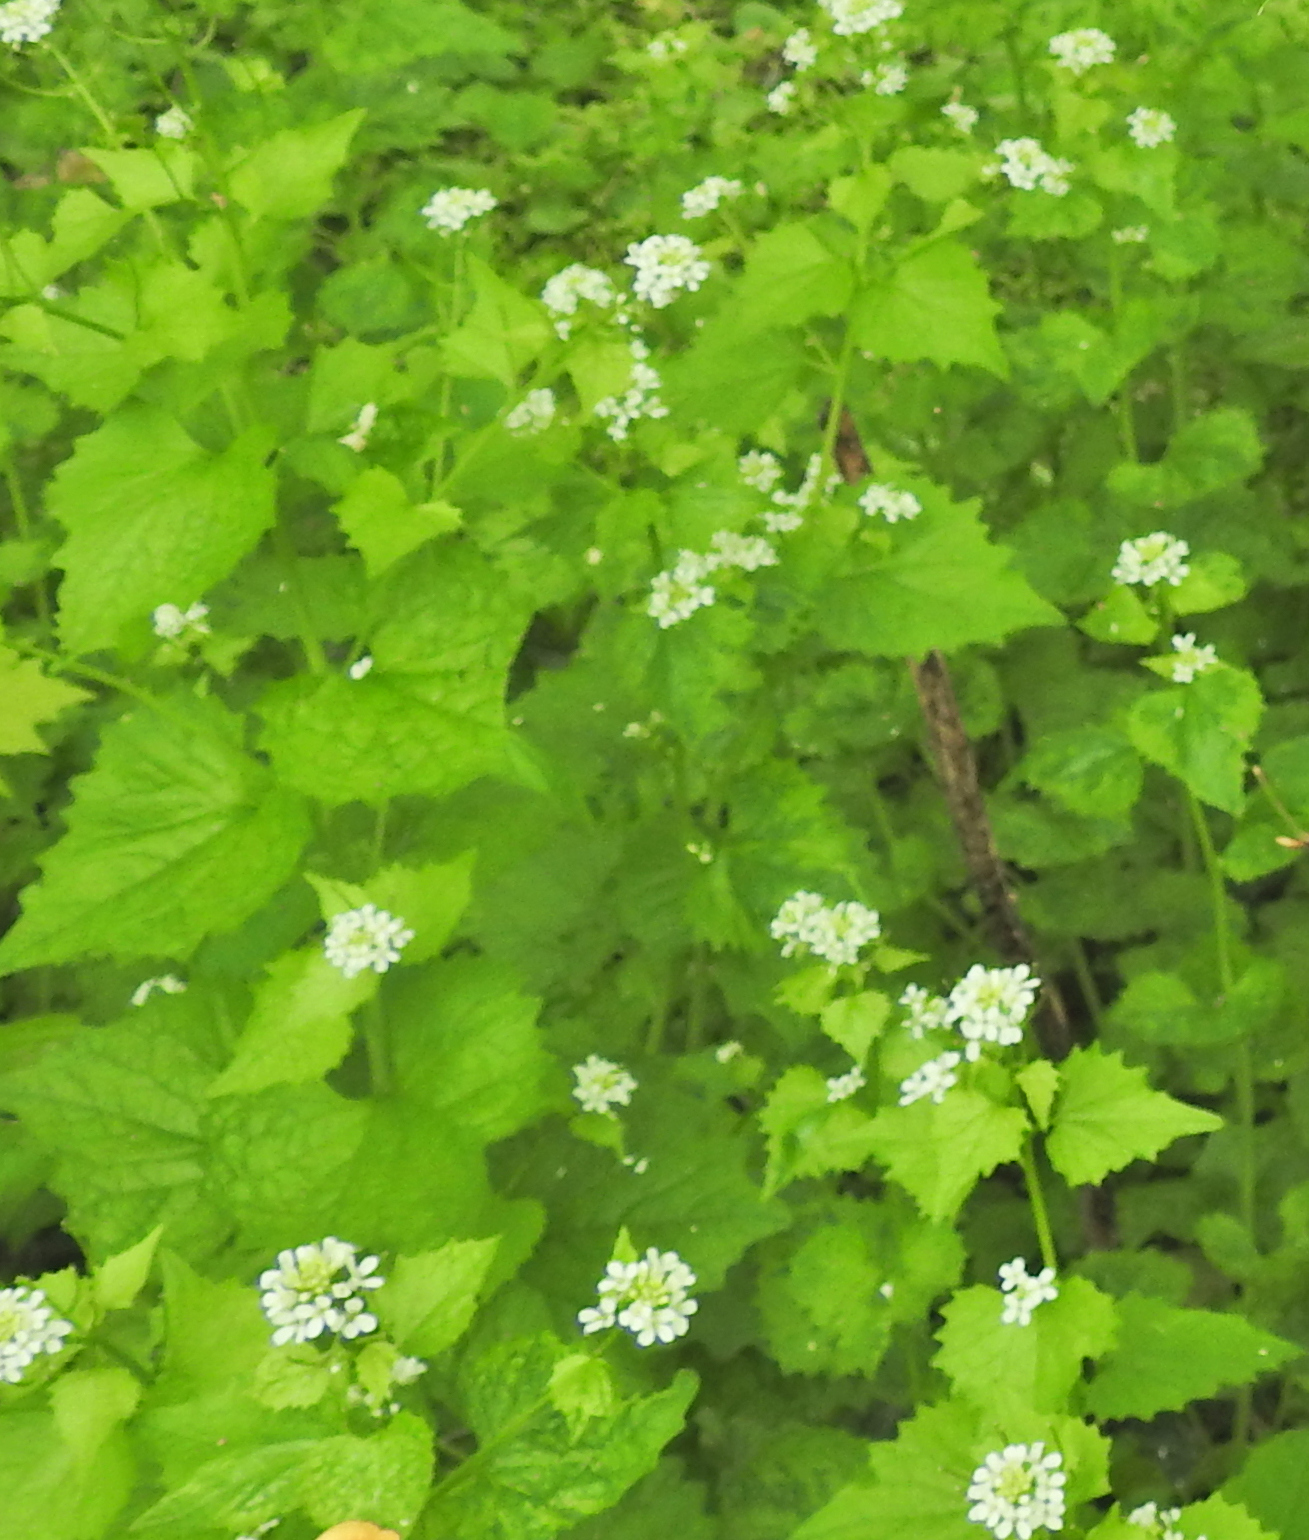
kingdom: Plantae
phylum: Tracheophyta
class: Magnoliopsida
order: Brassicales
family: Brassicaceae
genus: Alliaria
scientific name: Alliaria petiolata
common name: Garlic mustard
